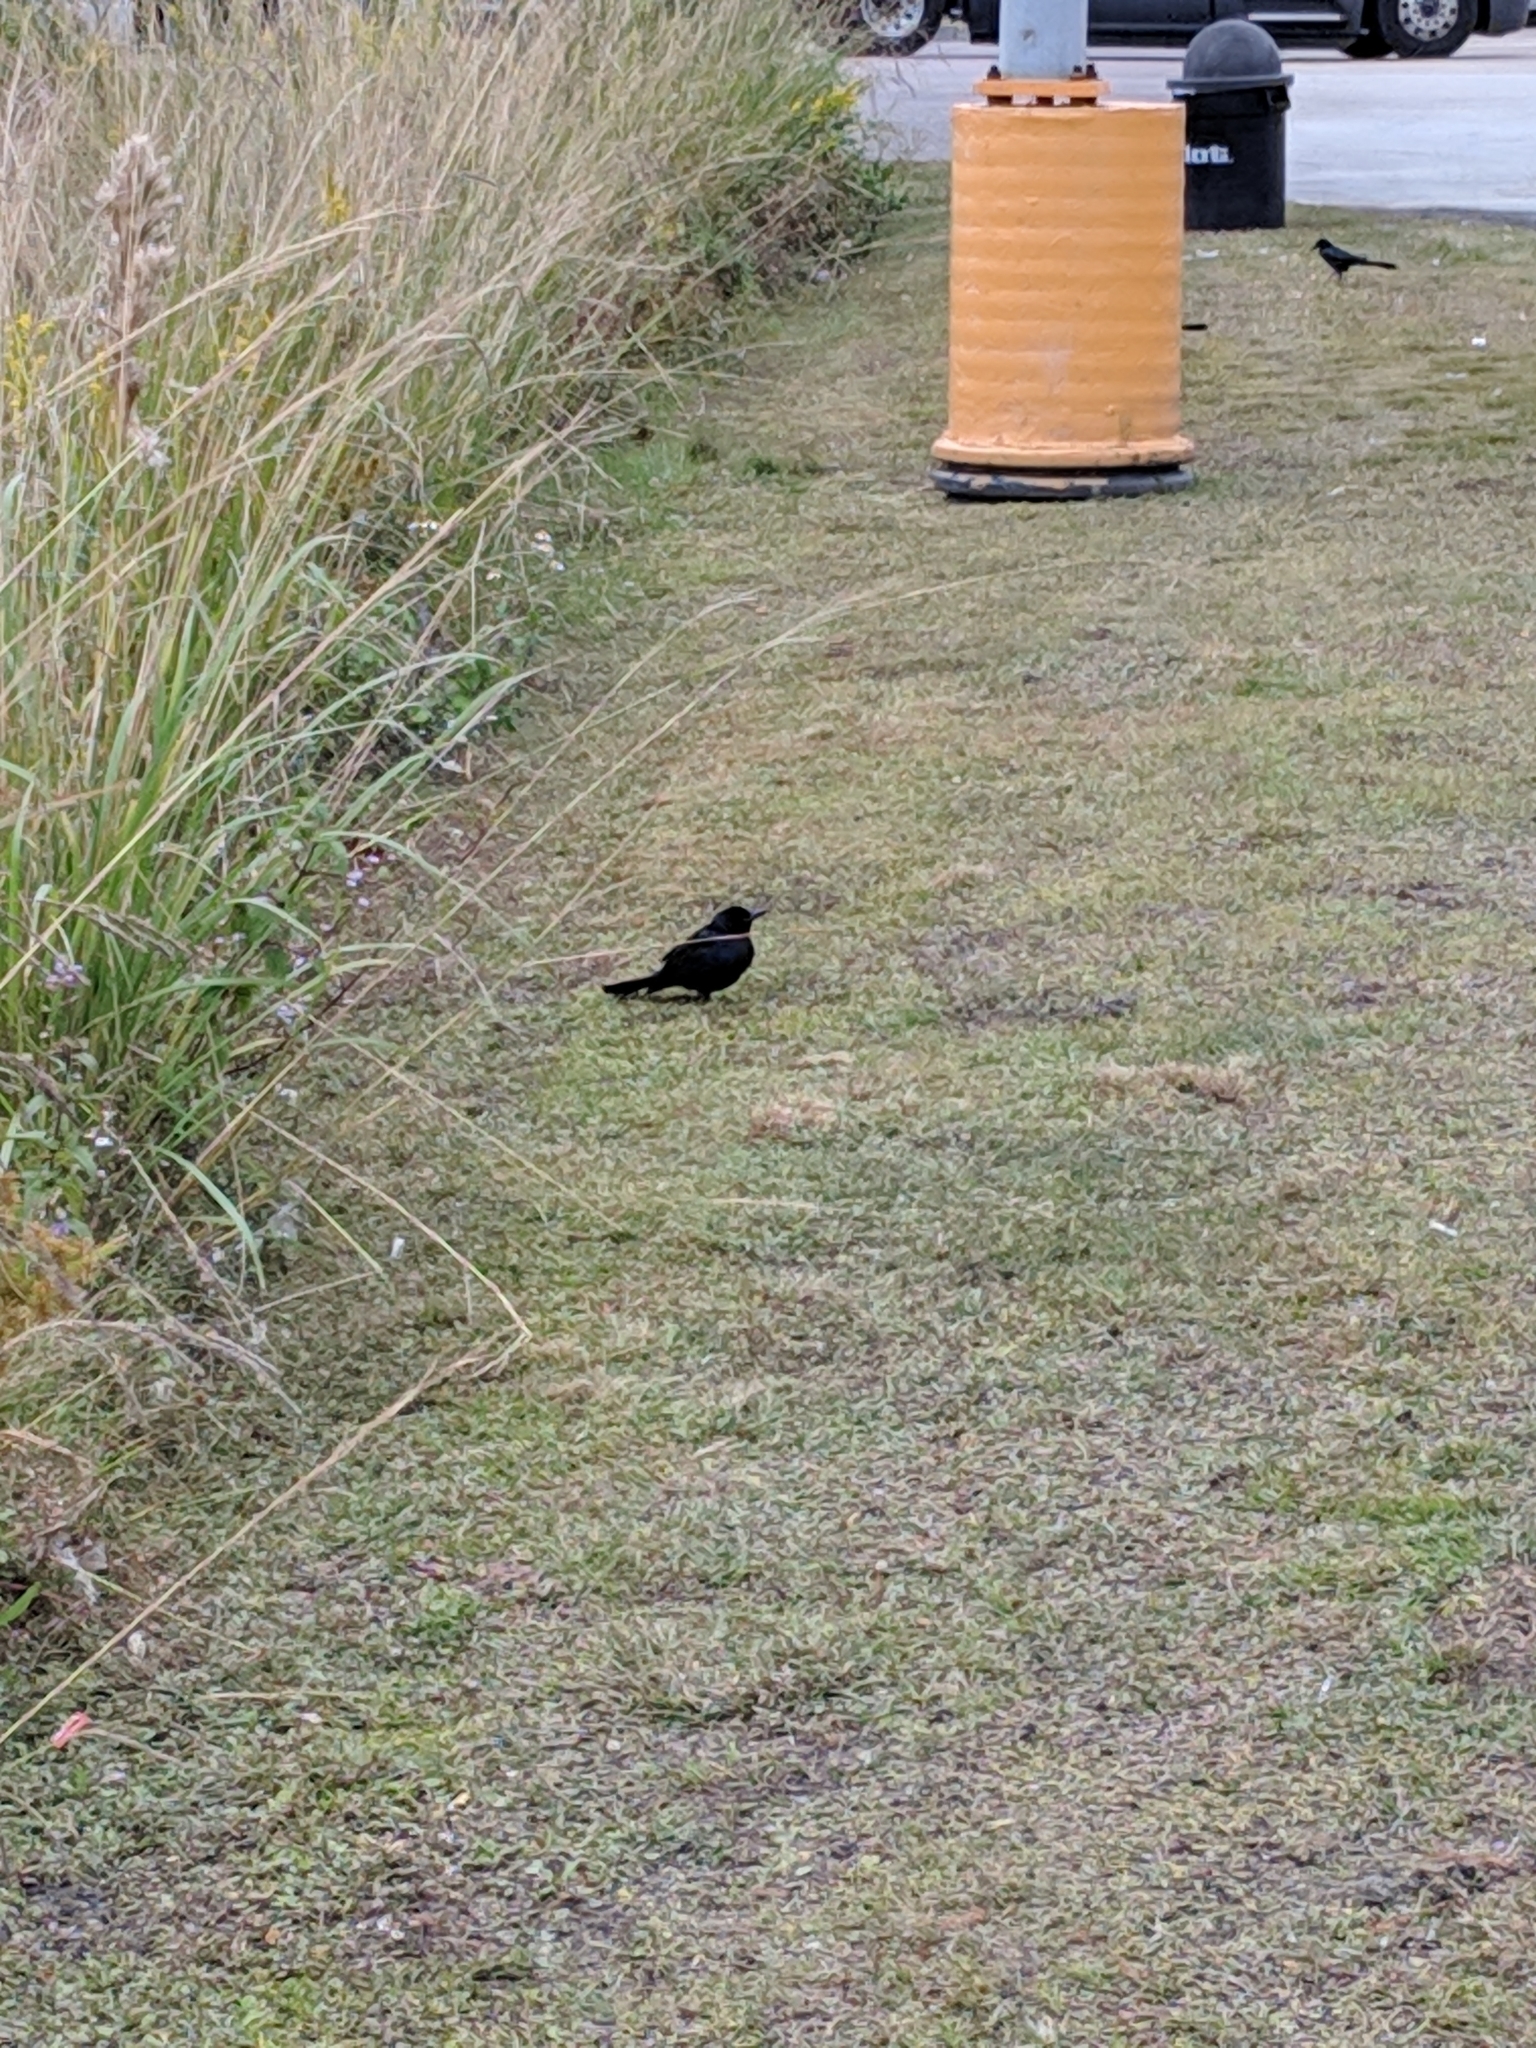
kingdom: Animalia
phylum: Chordata
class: Aves
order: Passeriformes
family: Icteridae
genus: Quiscalus
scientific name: Quiscalus major
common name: Boat-tailed grackle
